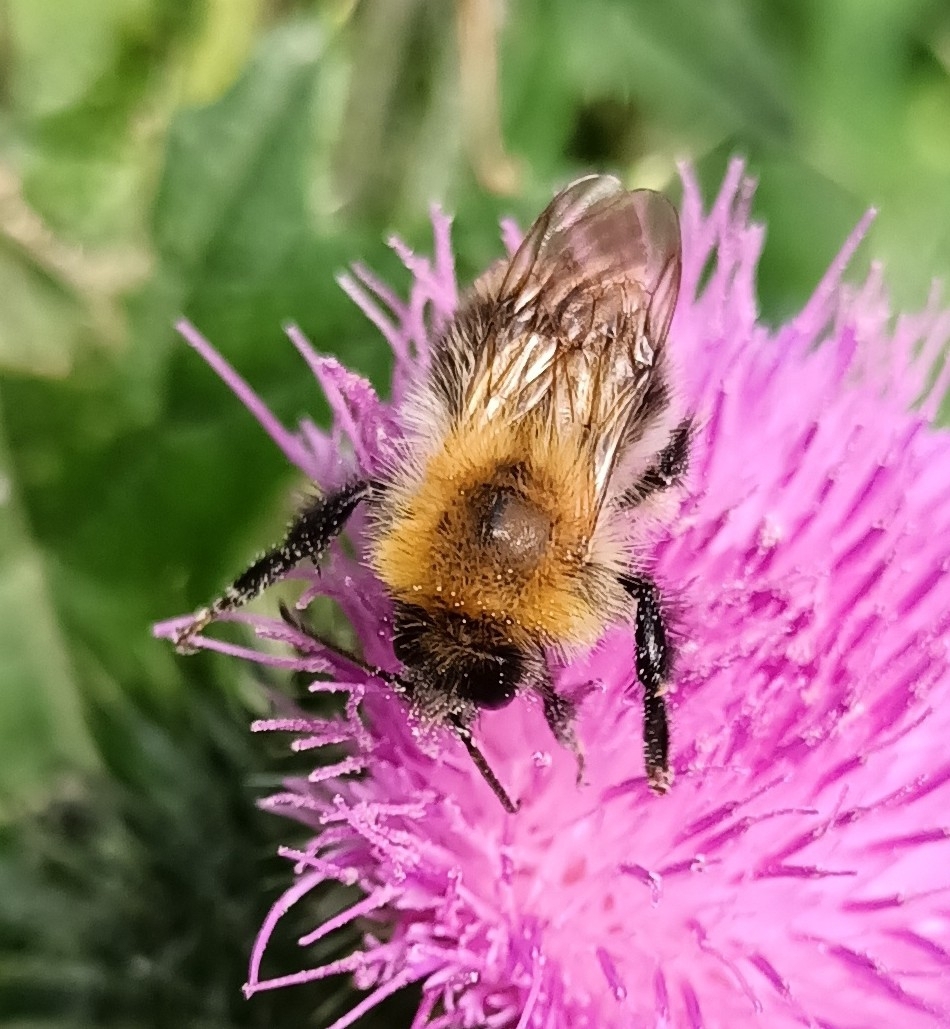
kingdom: Animalia
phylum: Arthropoda
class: Insecta
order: Hymenoptera
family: Apidae
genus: Bombus
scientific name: Bombus pascuorum
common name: Common carder bee
